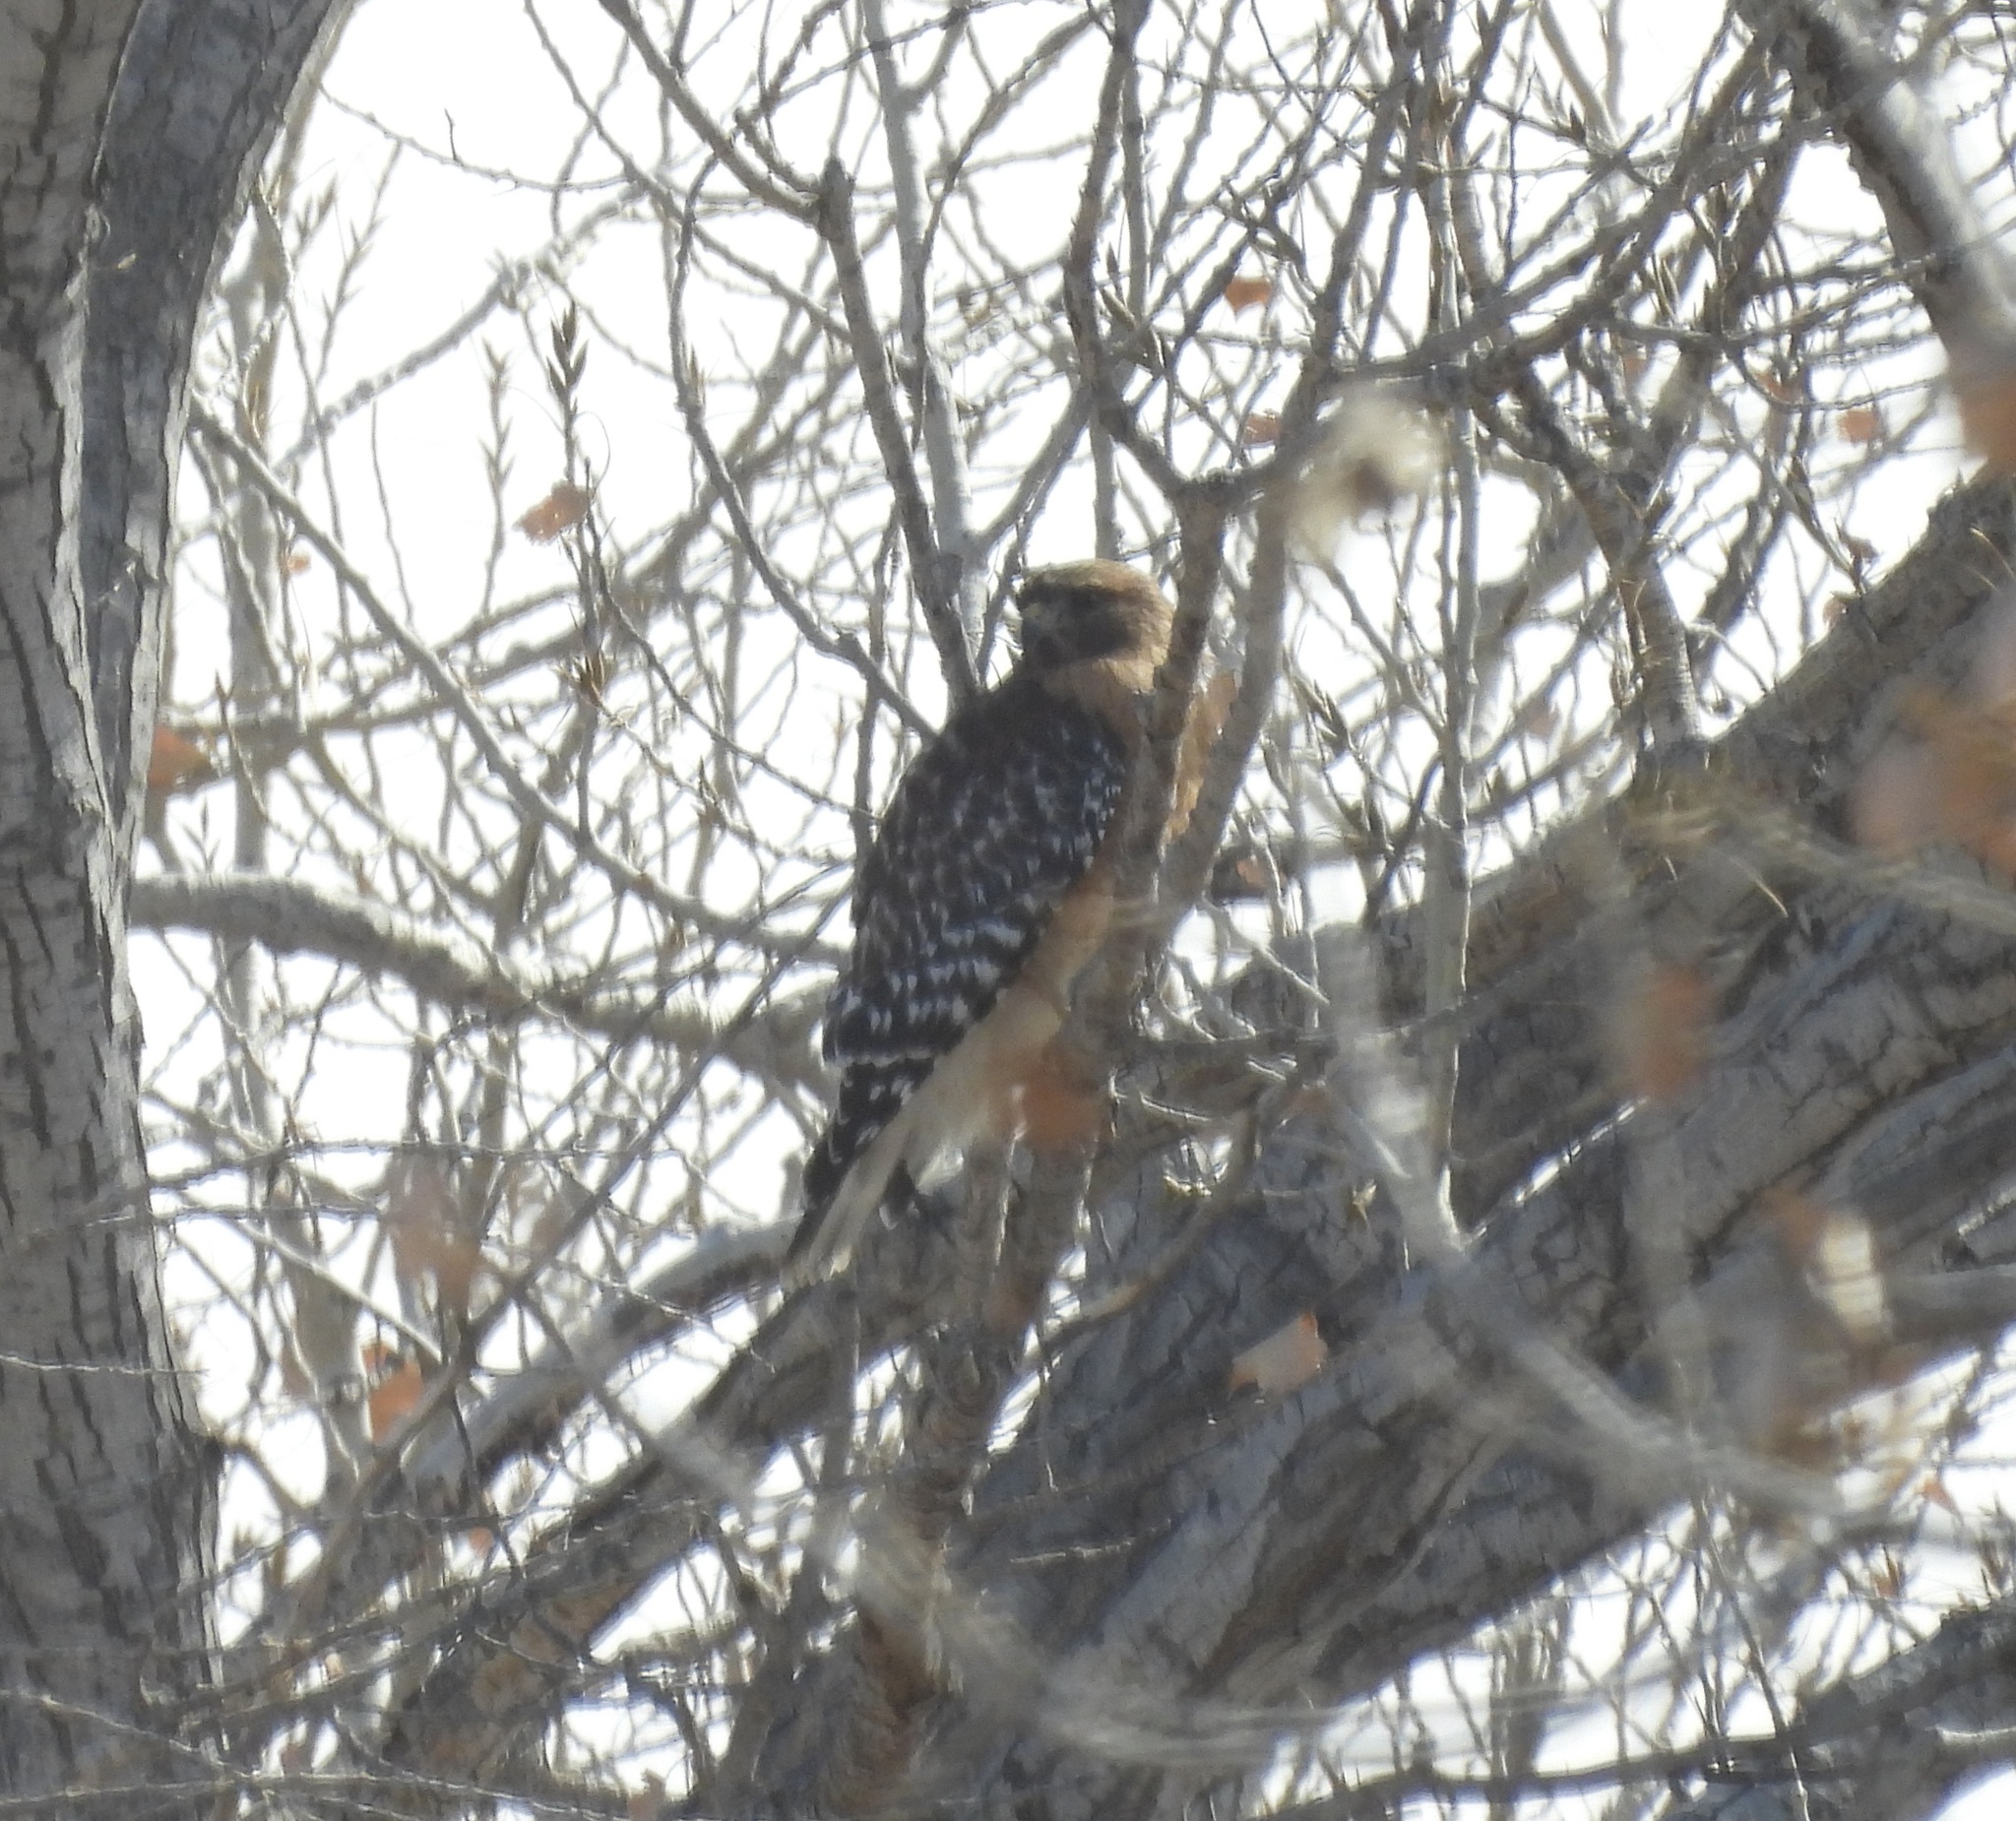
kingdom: Animalia
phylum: Chordata
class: Aves
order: Accipitriformes
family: Accipitridae
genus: Buteo
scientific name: Buteo lineatus
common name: Red-shouldered hawk
